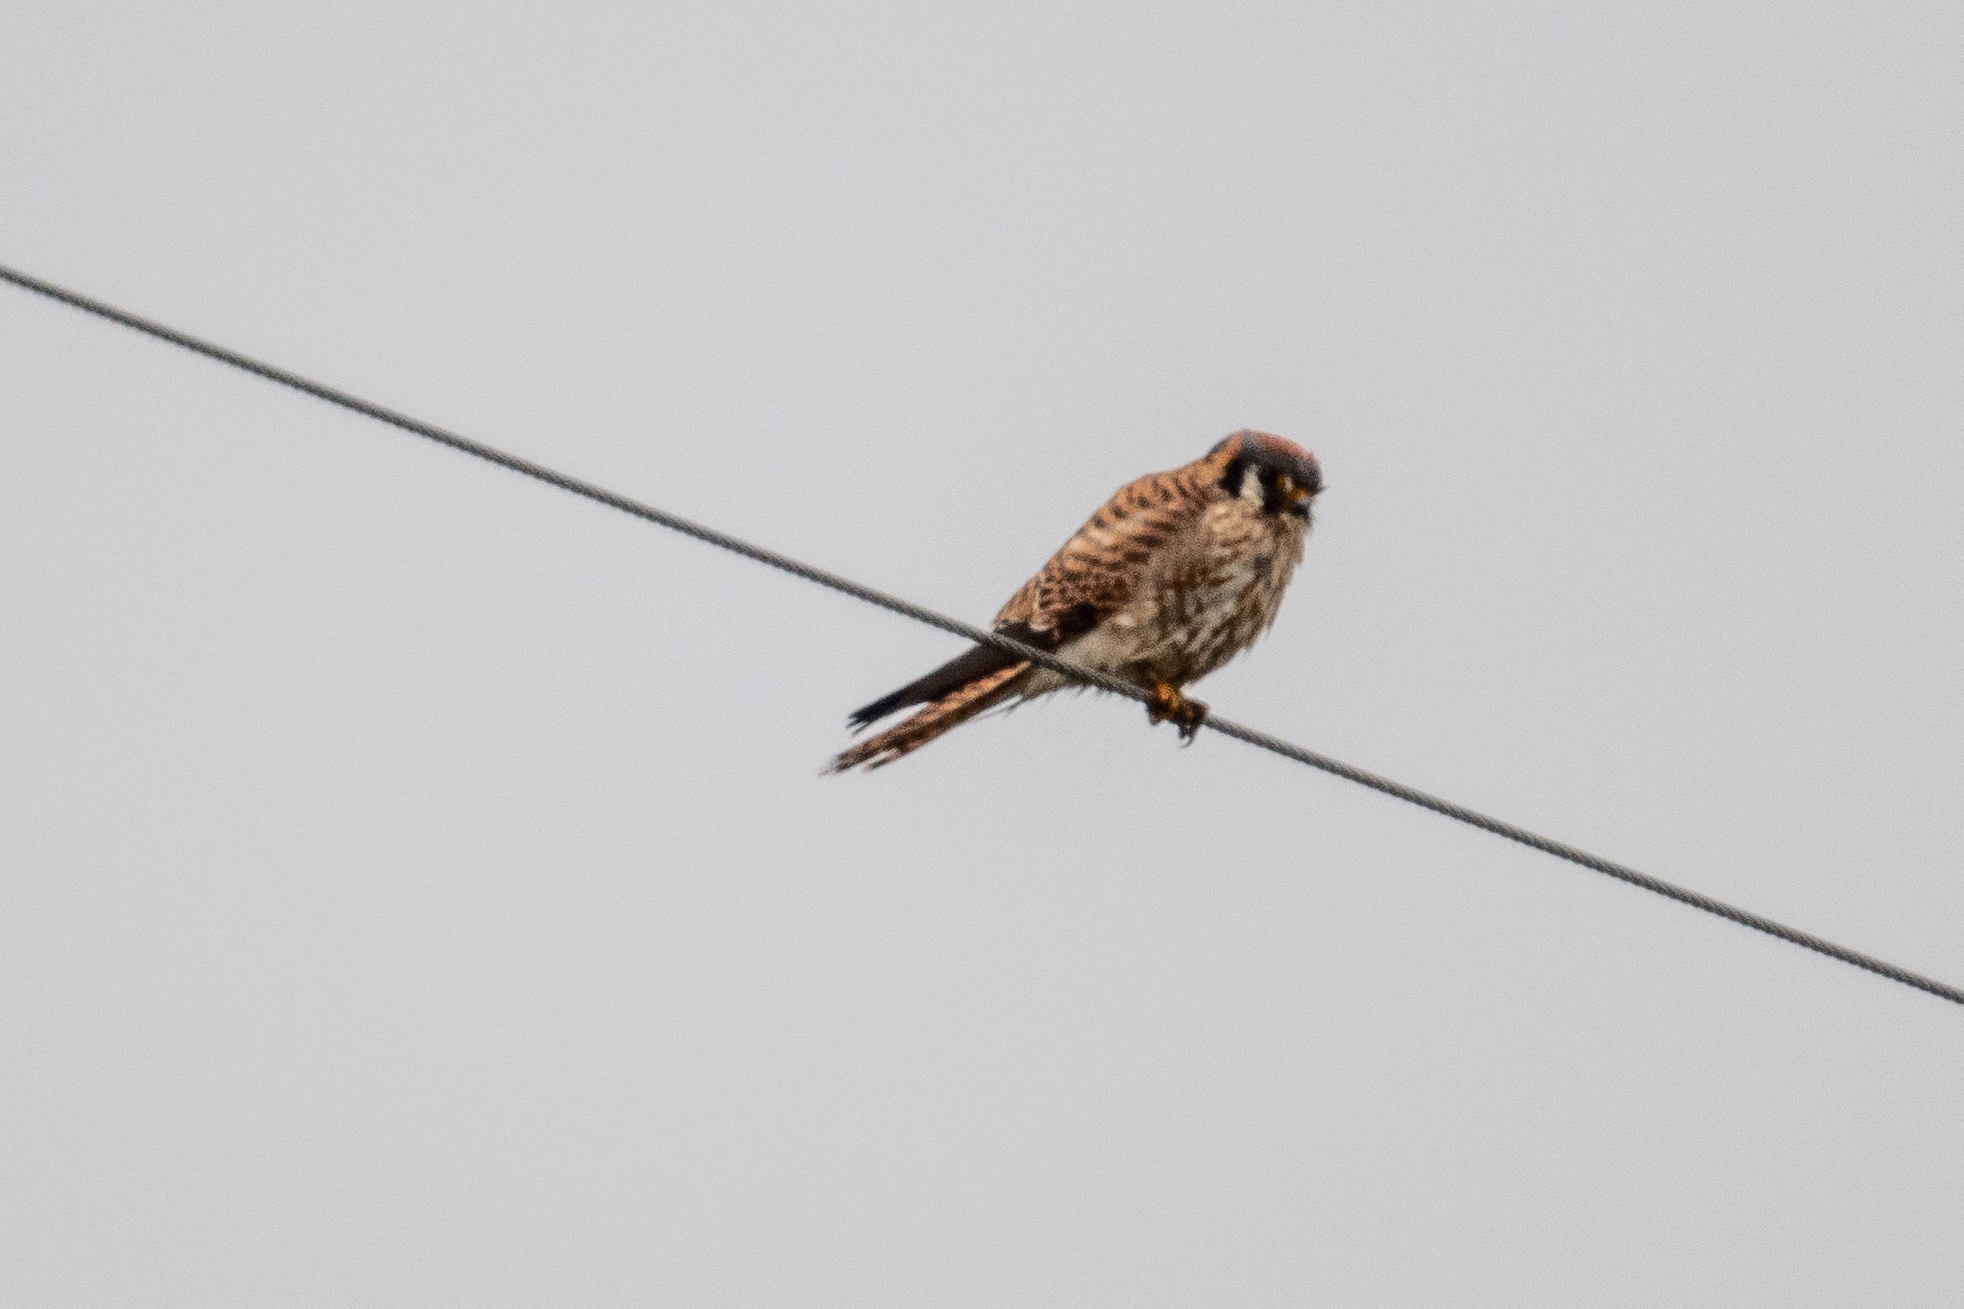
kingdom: Animalia
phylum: Chordata
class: Aves
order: Falconiformes
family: Falconidae
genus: Falco
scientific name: Falco sparverius
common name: American kestrel
